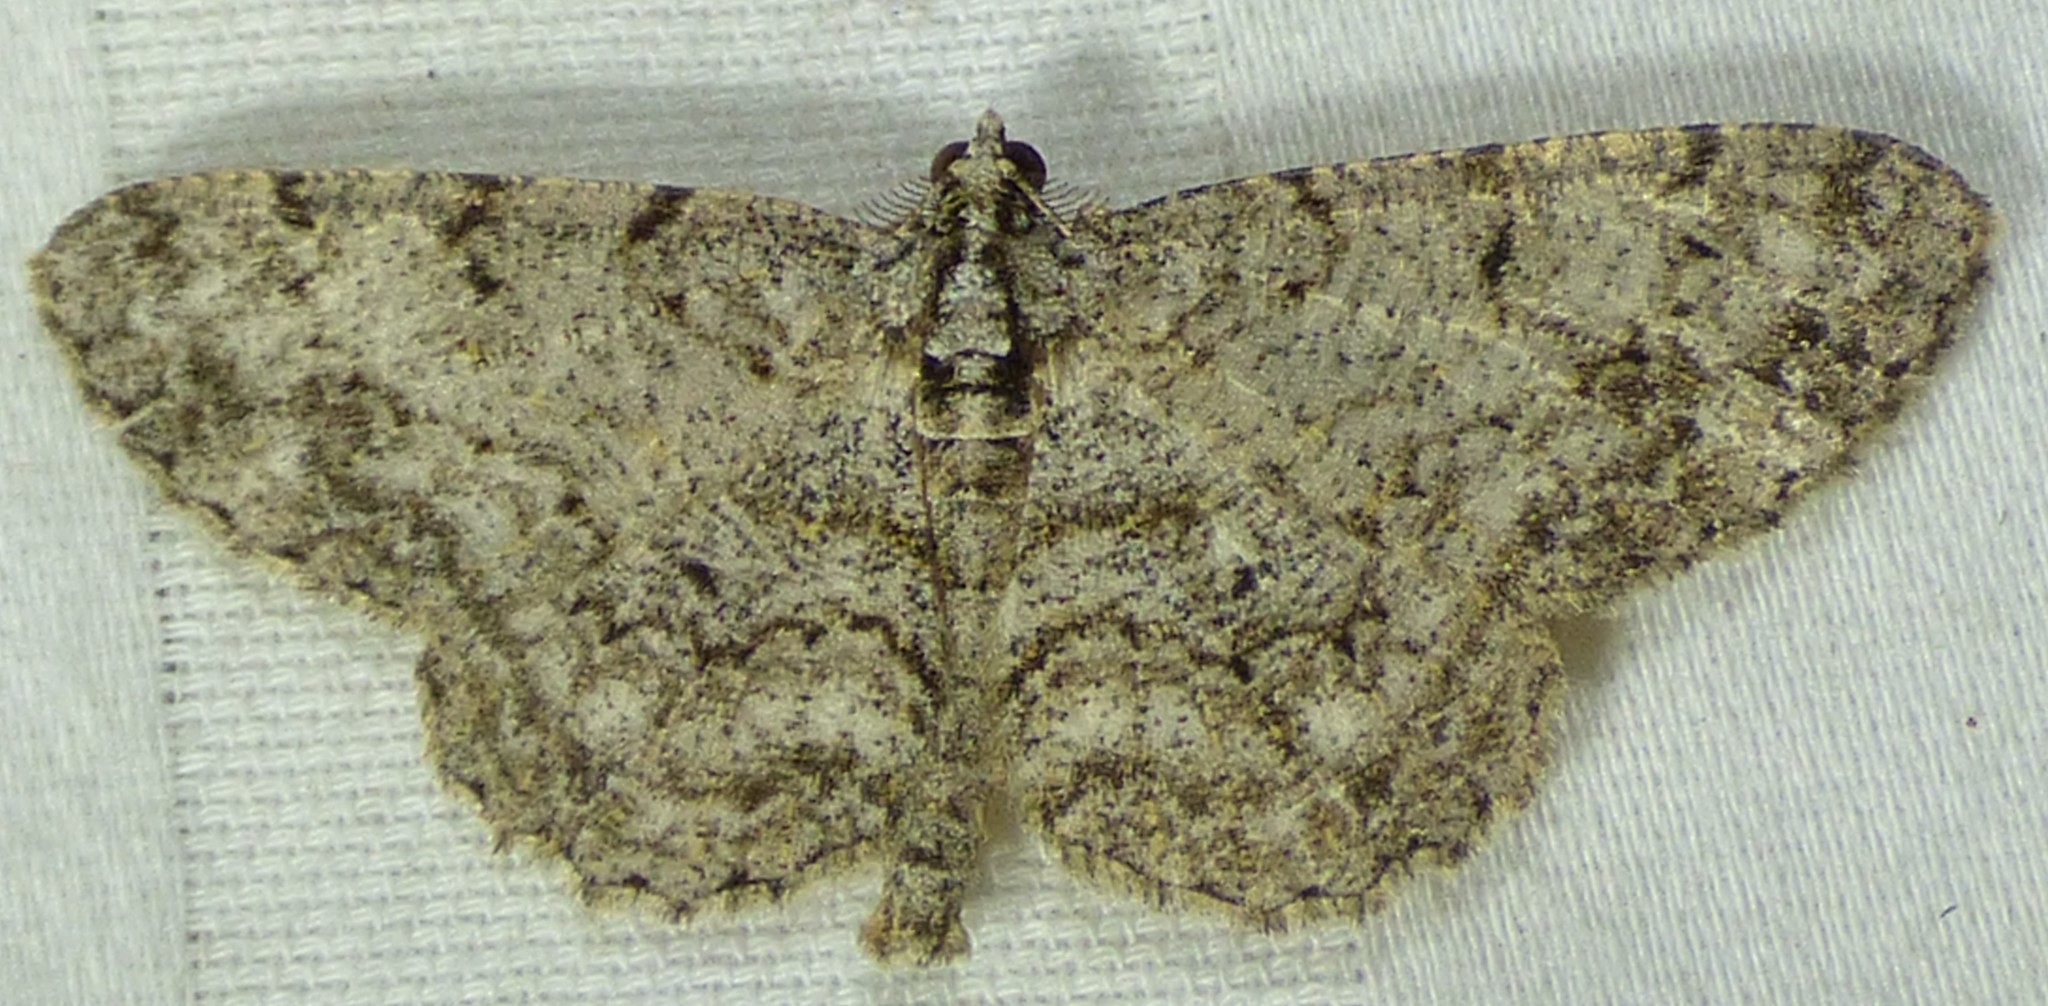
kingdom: Animalia
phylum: Arthropoda
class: Insecta
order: Lepidoptera
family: Geometridae
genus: Protoboarmia
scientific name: Protoboarmia porcelaria
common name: Porcelain gray
